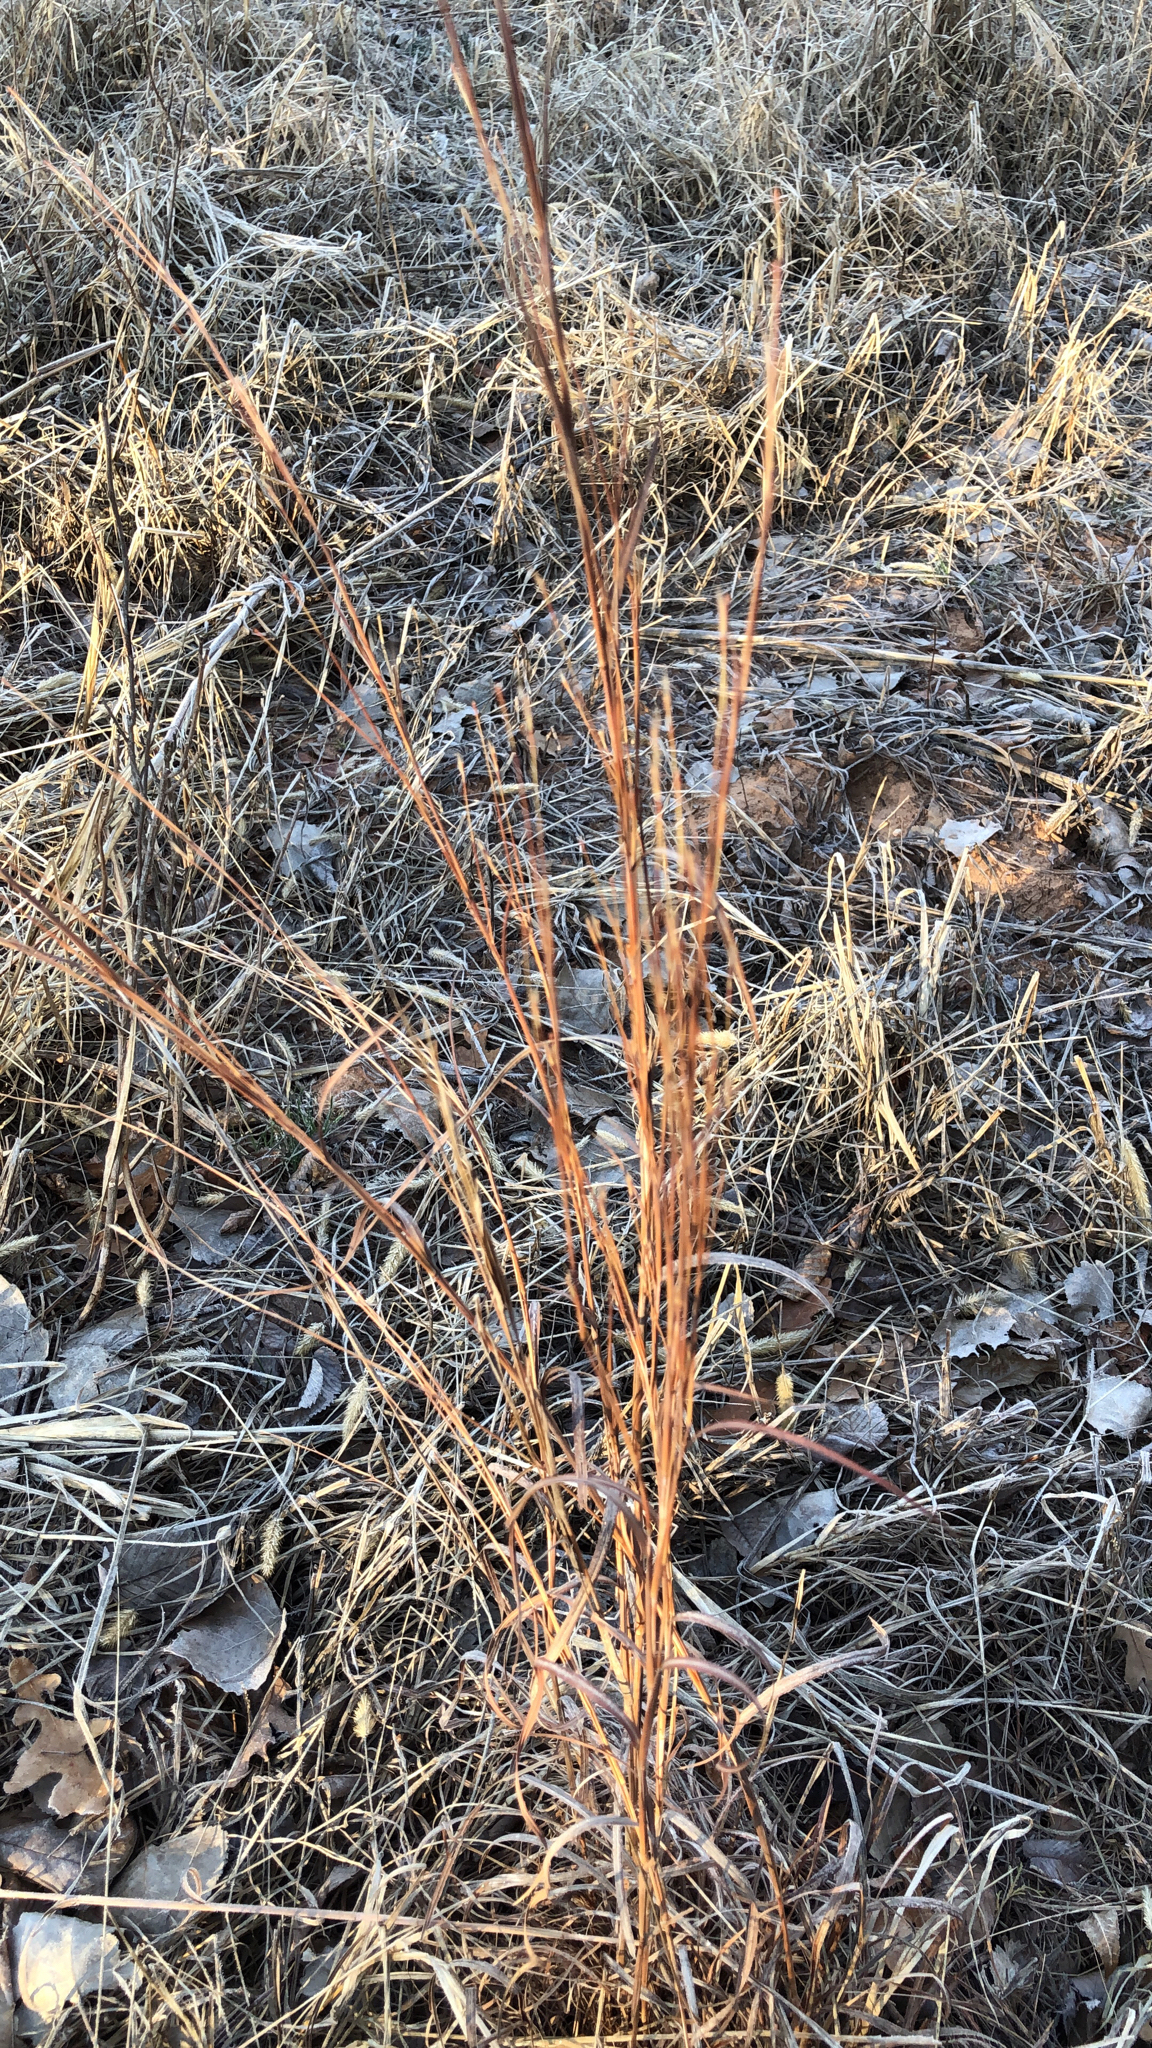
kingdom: Plantae
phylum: Tracheophyta
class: Liliopsida
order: Poales
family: Poaceae
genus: Schizachyrium
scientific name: Schizachyrium scoparium
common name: Little bluestem
